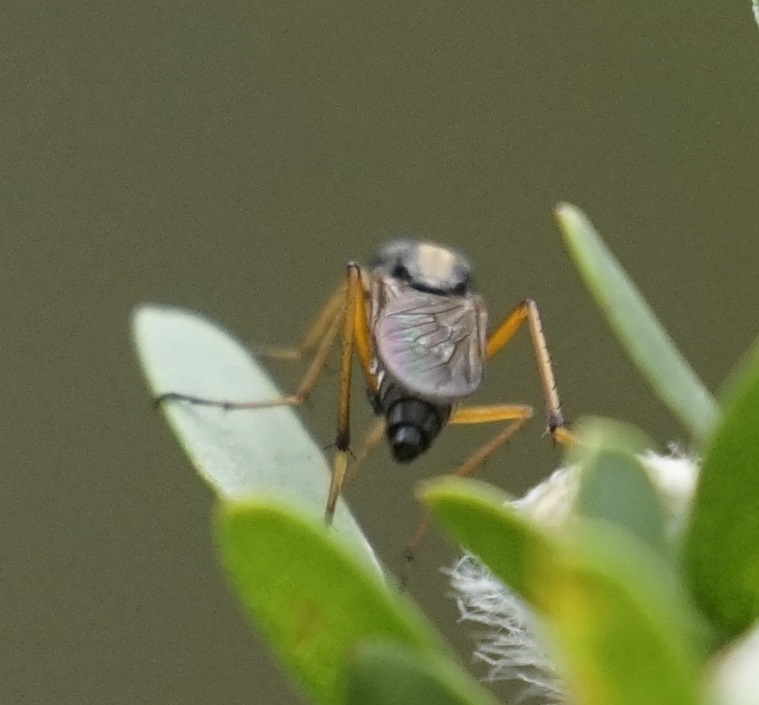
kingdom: Animalia
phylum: Arthropoda
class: Insecta
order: Diptera
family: Therevidae
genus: Taenogerella
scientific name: Taenogerella platina
